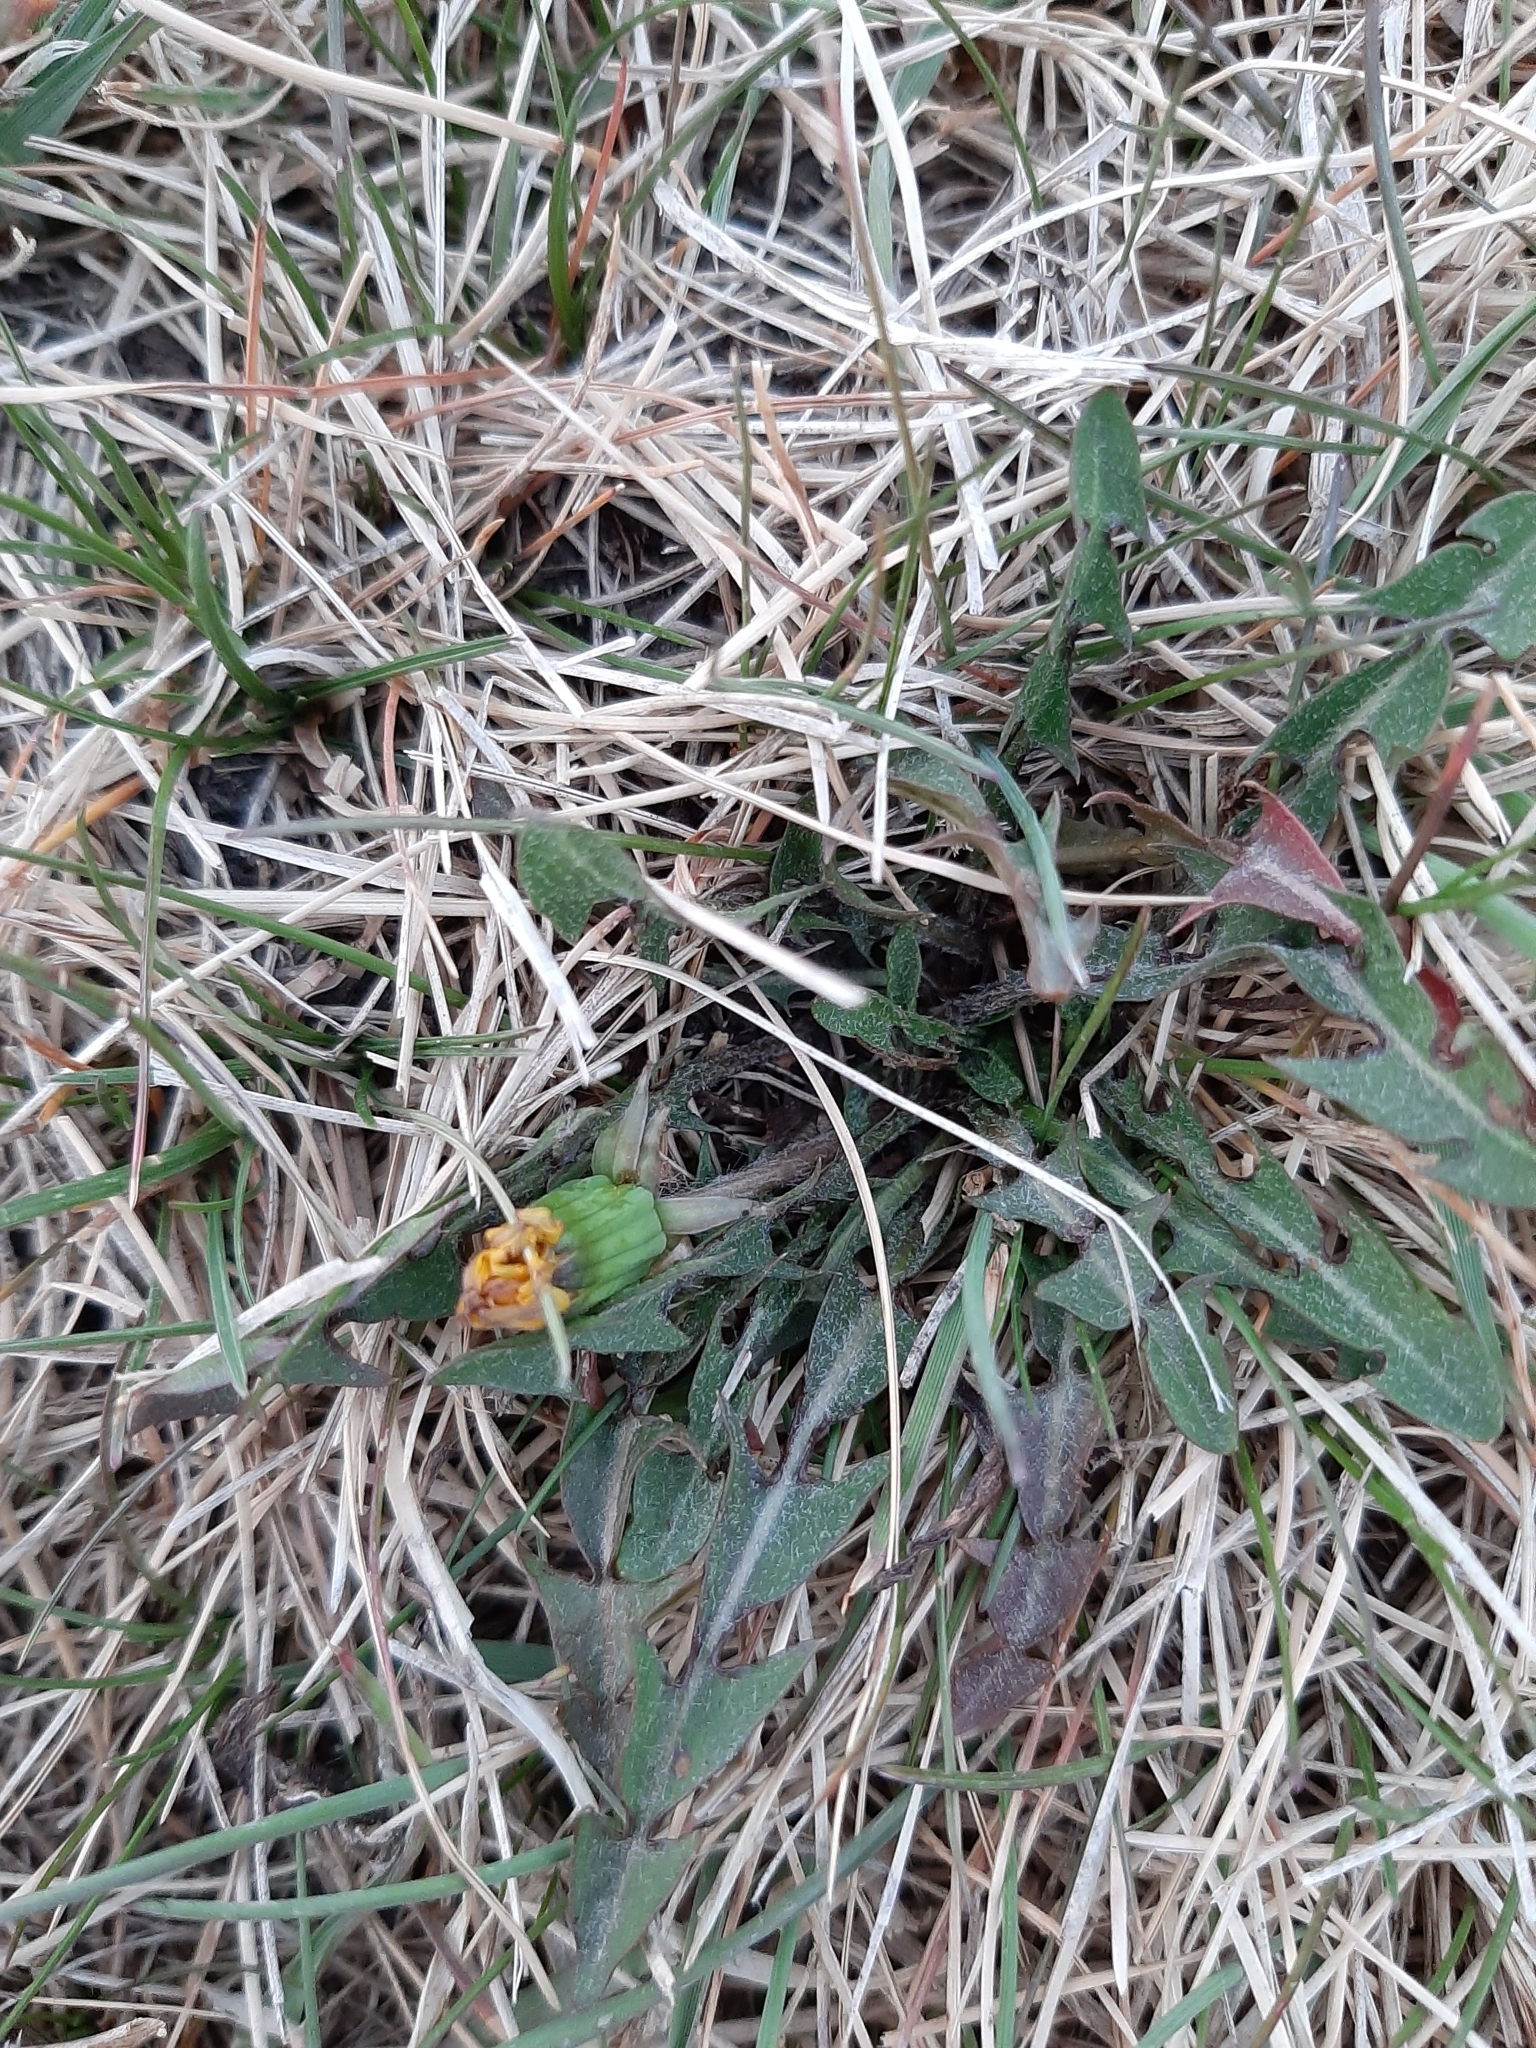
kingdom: Plantae
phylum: Tracheophyta
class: Magnoliopsida
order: Asterales
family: Asteraceae
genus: Taraxacum
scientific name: Taraxacum officinale
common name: Common dandelion
